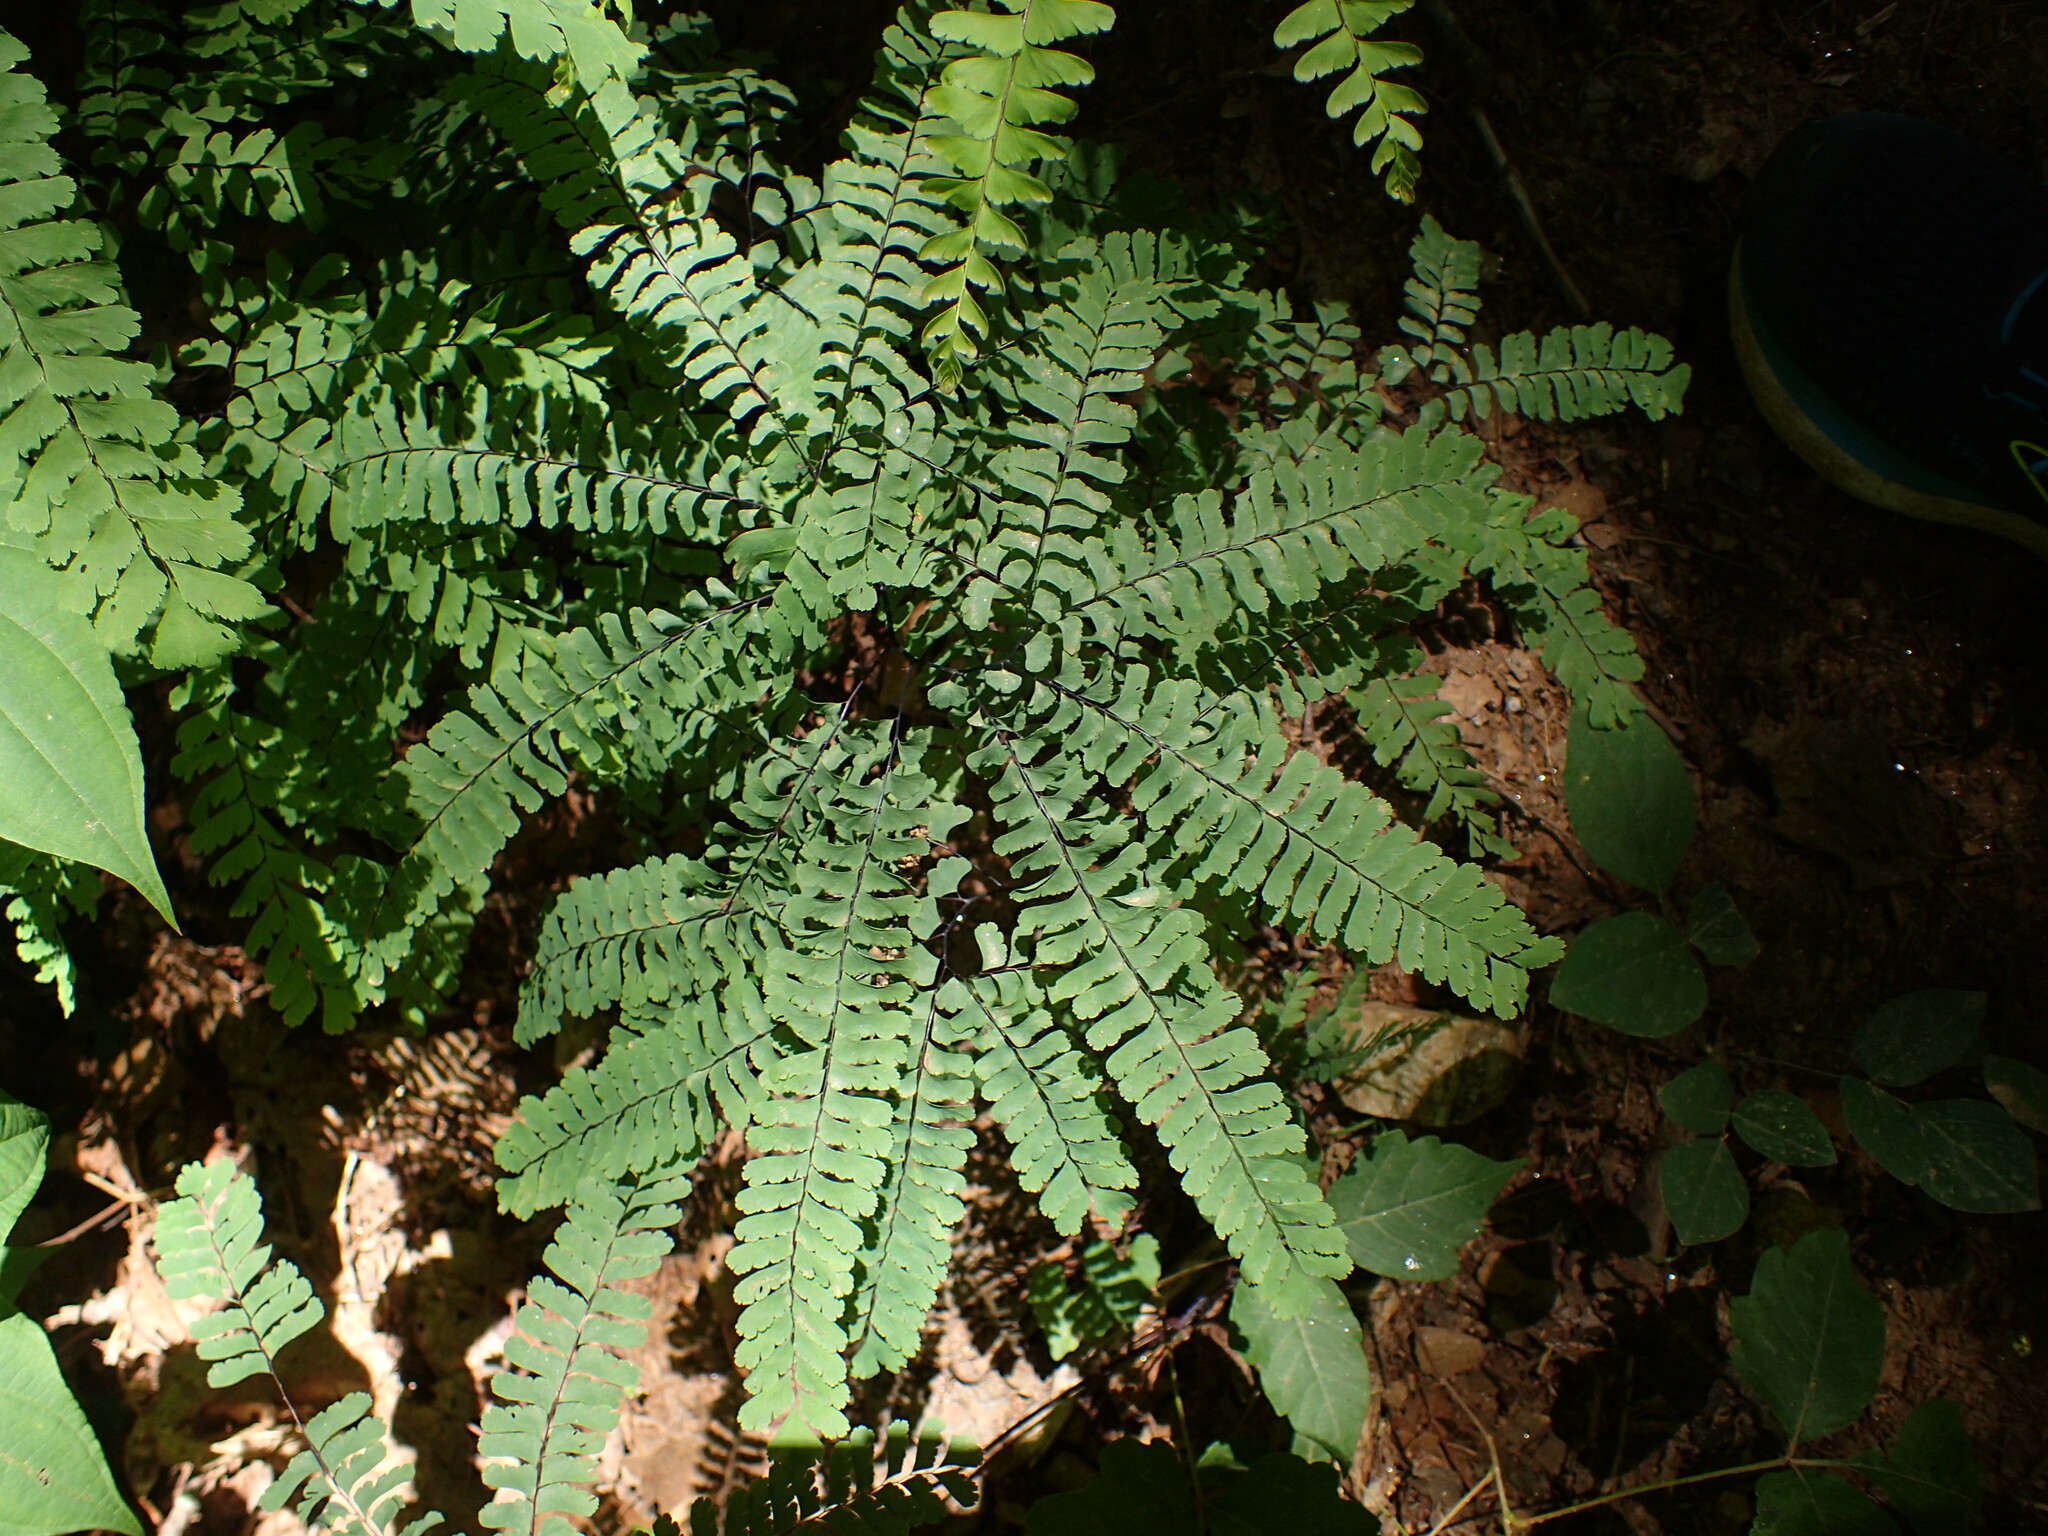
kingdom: Plantae
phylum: Tracheophyta
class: Polypodiopsida
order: Polypodiales
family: Pteridaceae
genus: Adiantum
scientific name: Adiantum pedatum
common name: Five-finger fern
